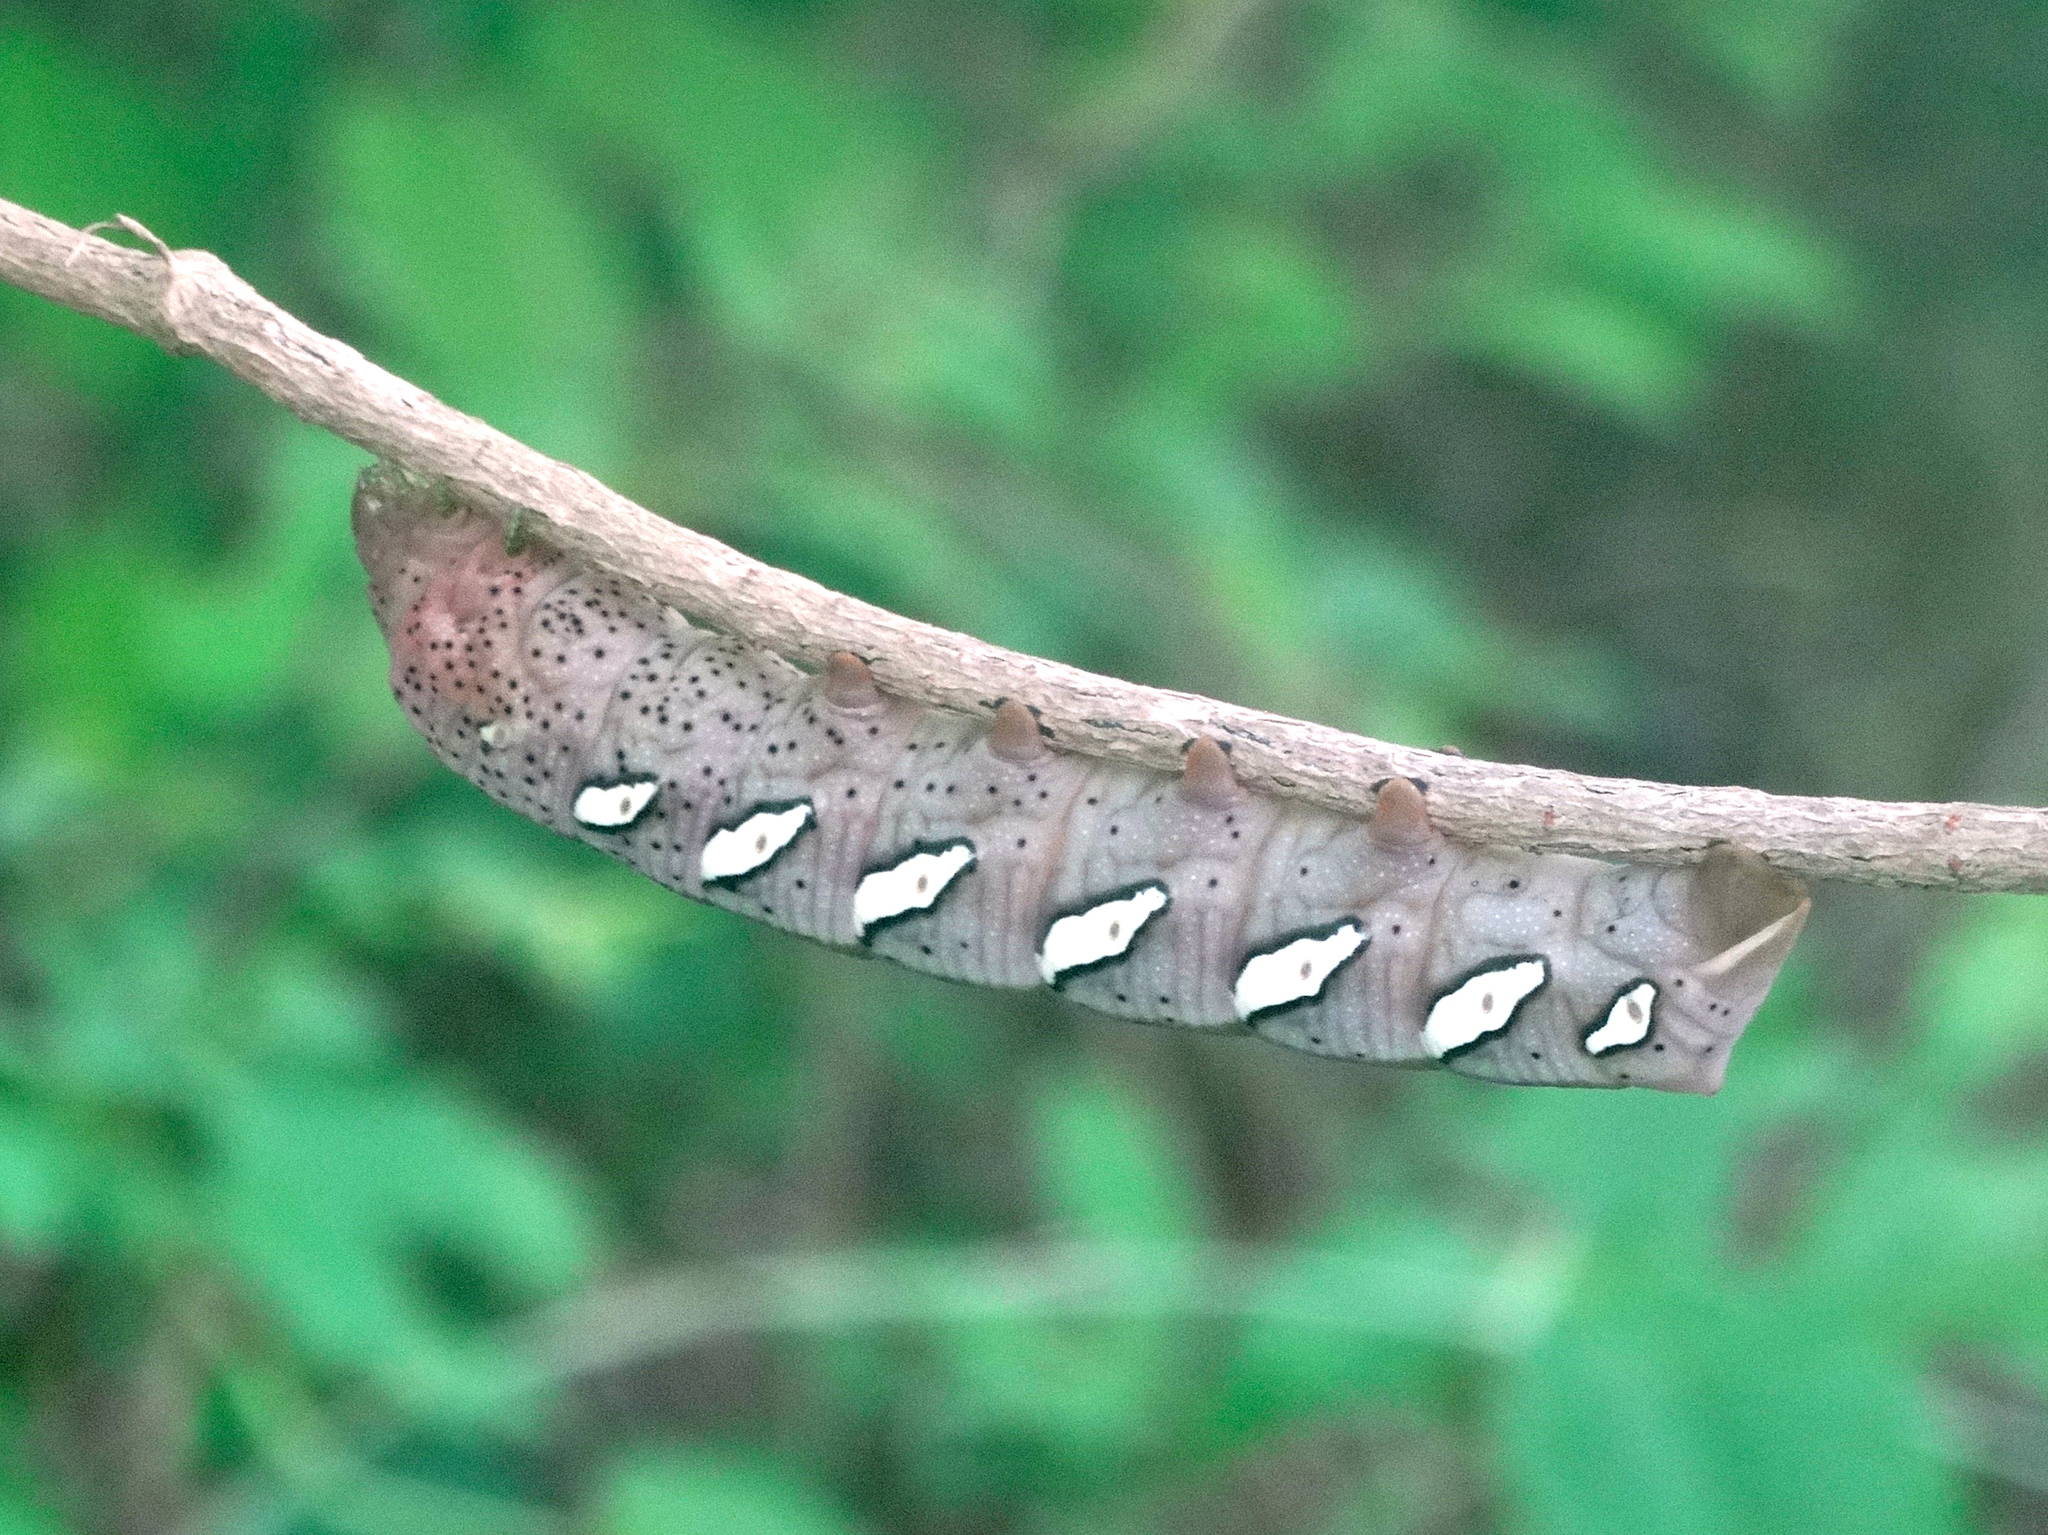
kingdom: Animalia
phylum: Arthropoda
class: Insecta
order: Lepidoptera
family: Sphingidae
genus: Eumorpha
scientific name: Eumorpha
